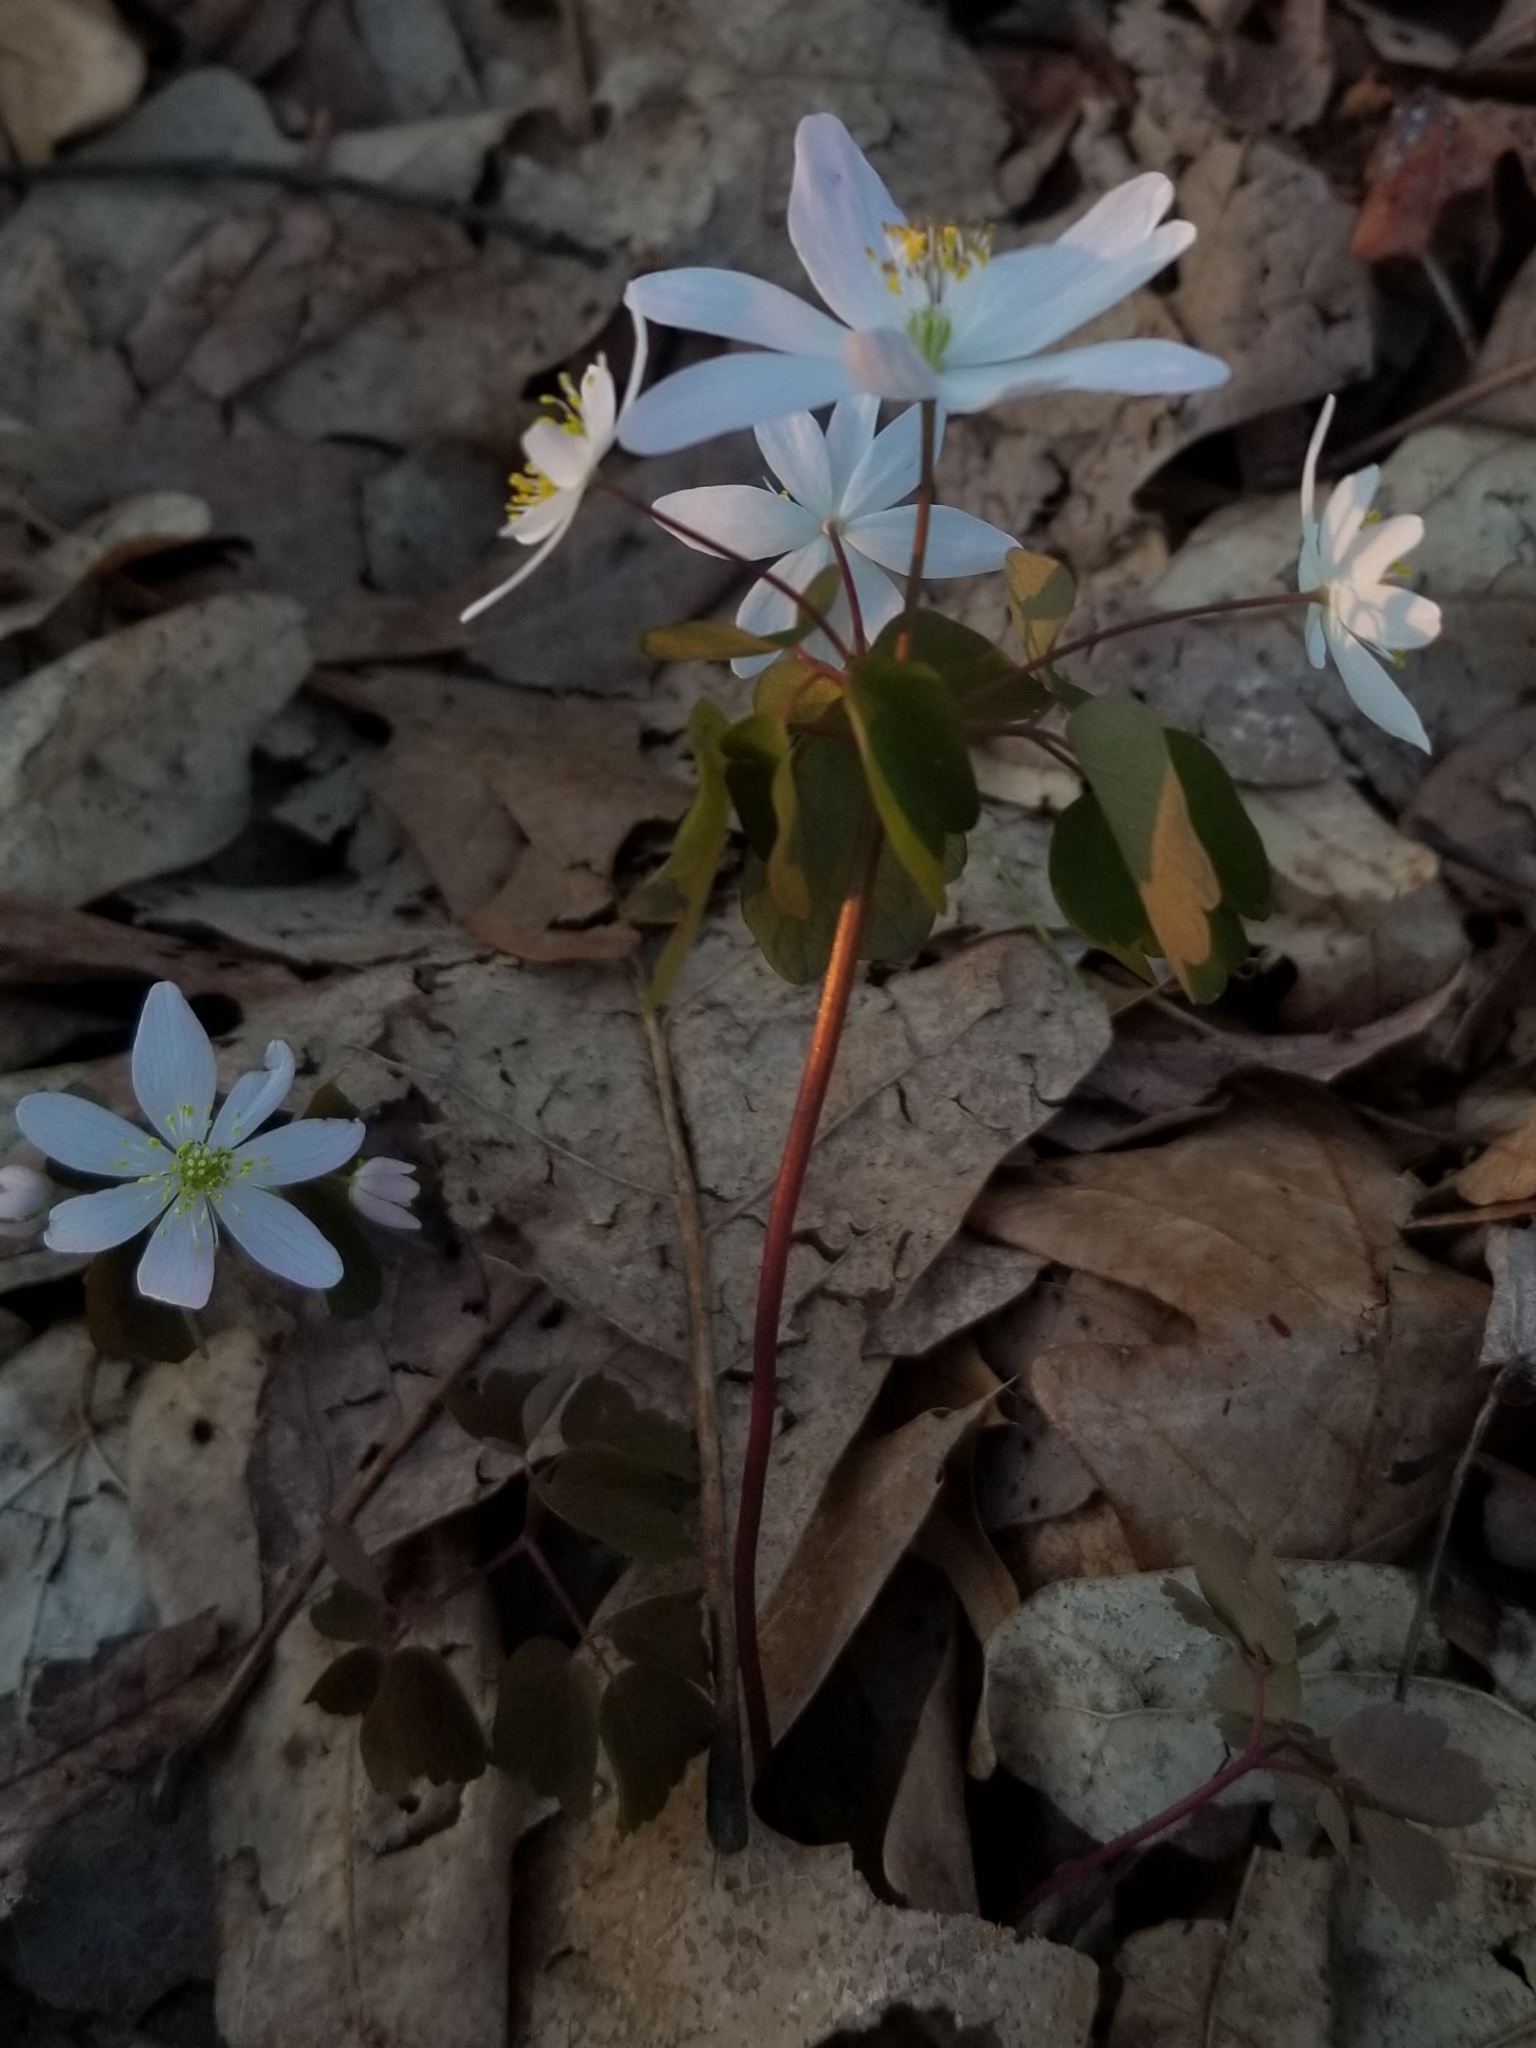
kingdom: Plantae
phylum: Tracheophyta
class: Magnoliopsida
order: Ranunculales
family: Ranunculaceae
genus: Thalictrum
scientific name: Thalictrum thalictroides
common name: Rue-anemone
